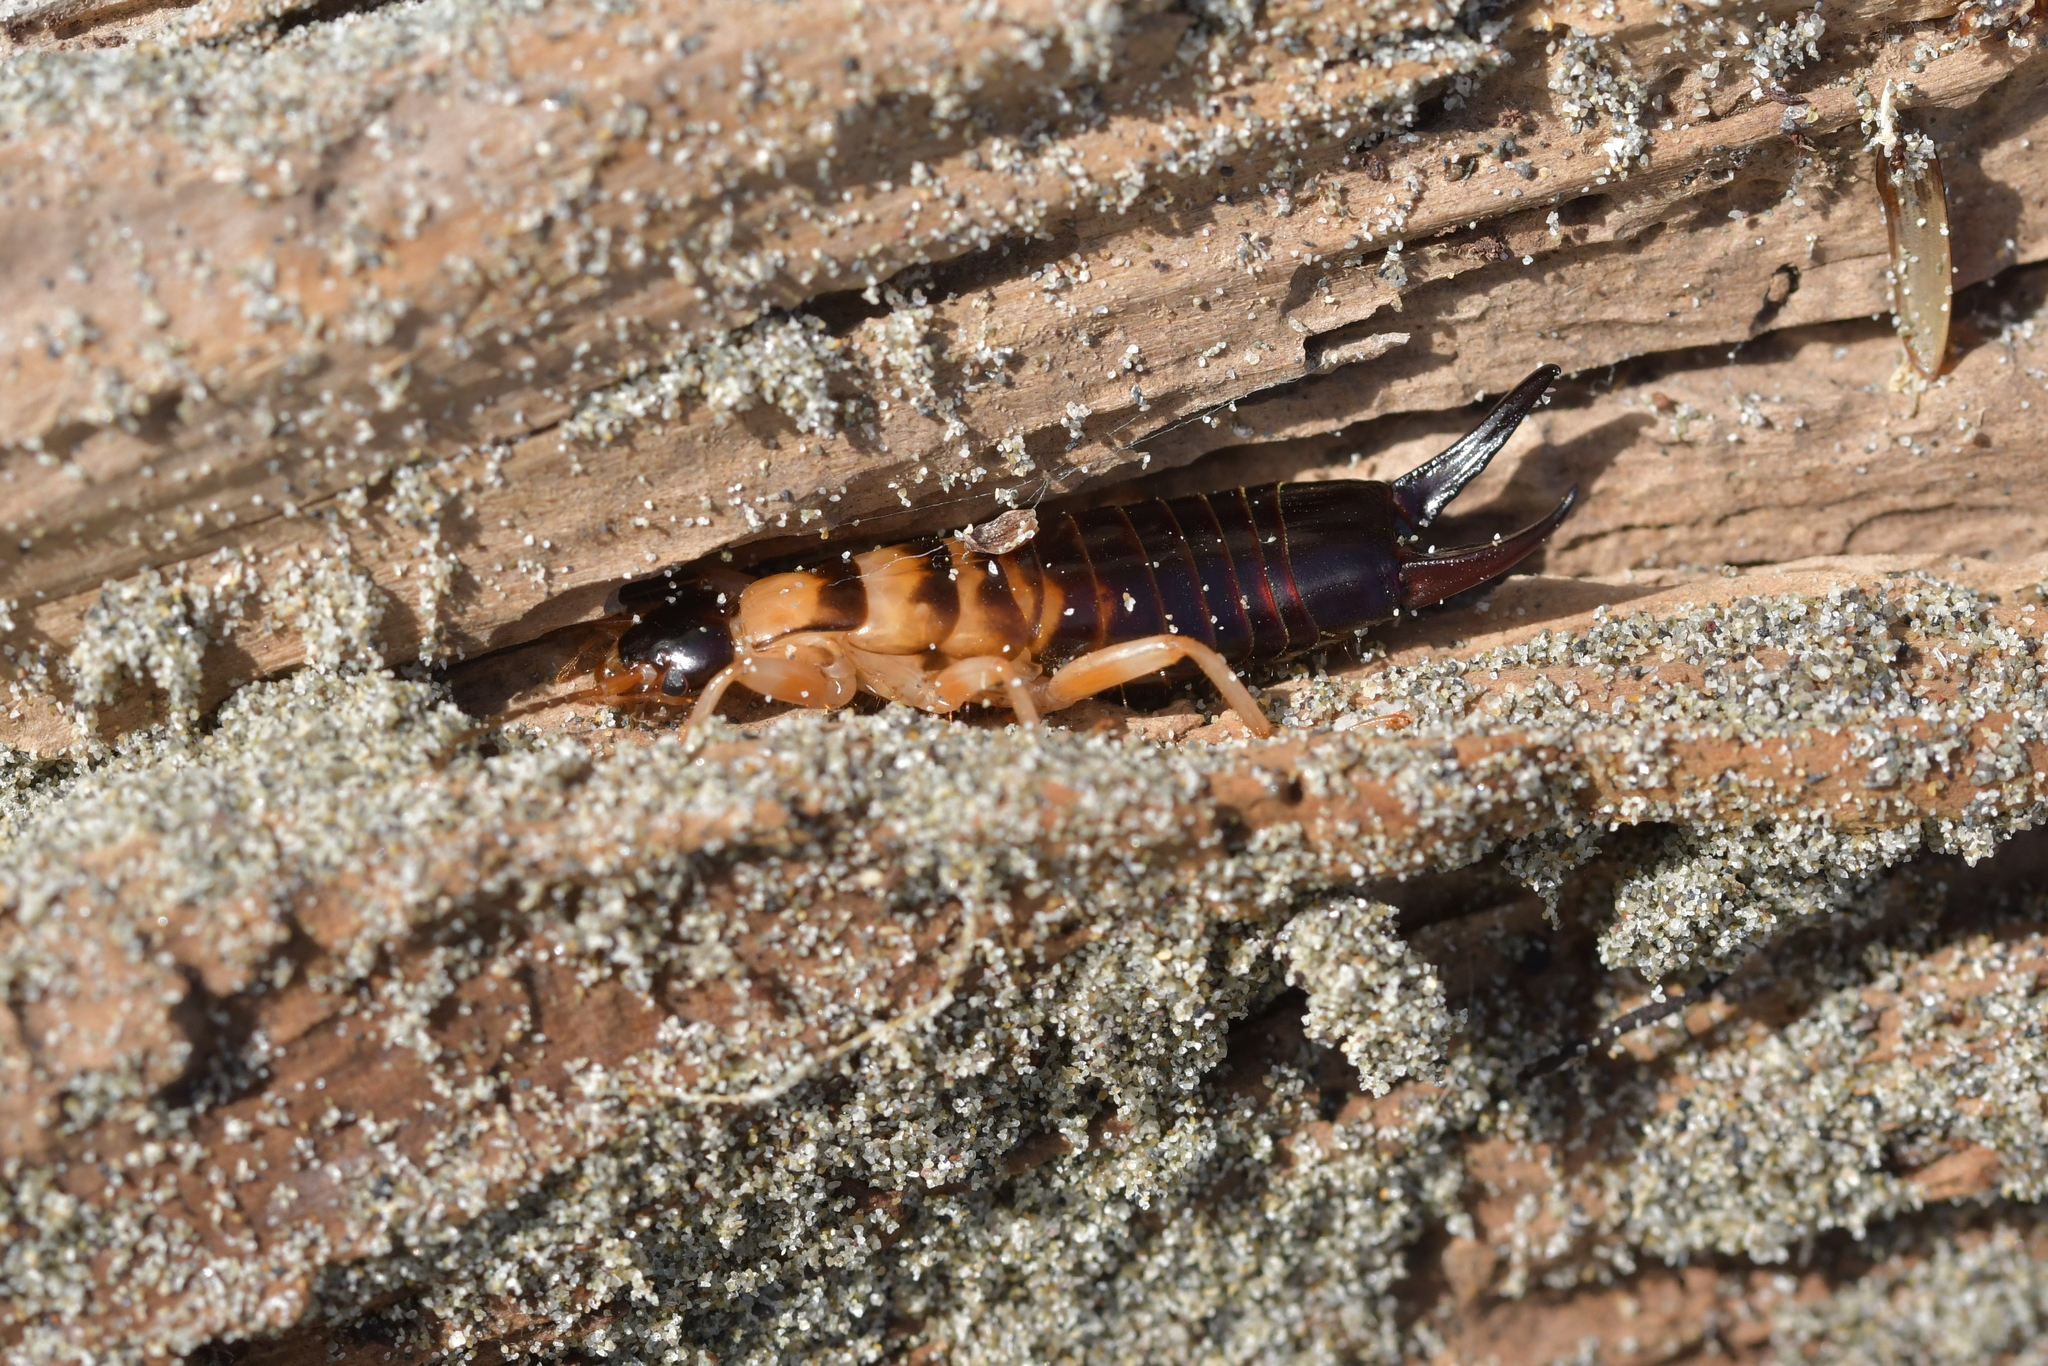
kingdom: Animalia
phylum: Arthropoda
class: Insecta
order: Dermaptera
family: Anisolabididae
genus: Anisolabis
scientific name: Anisolabis littorea
